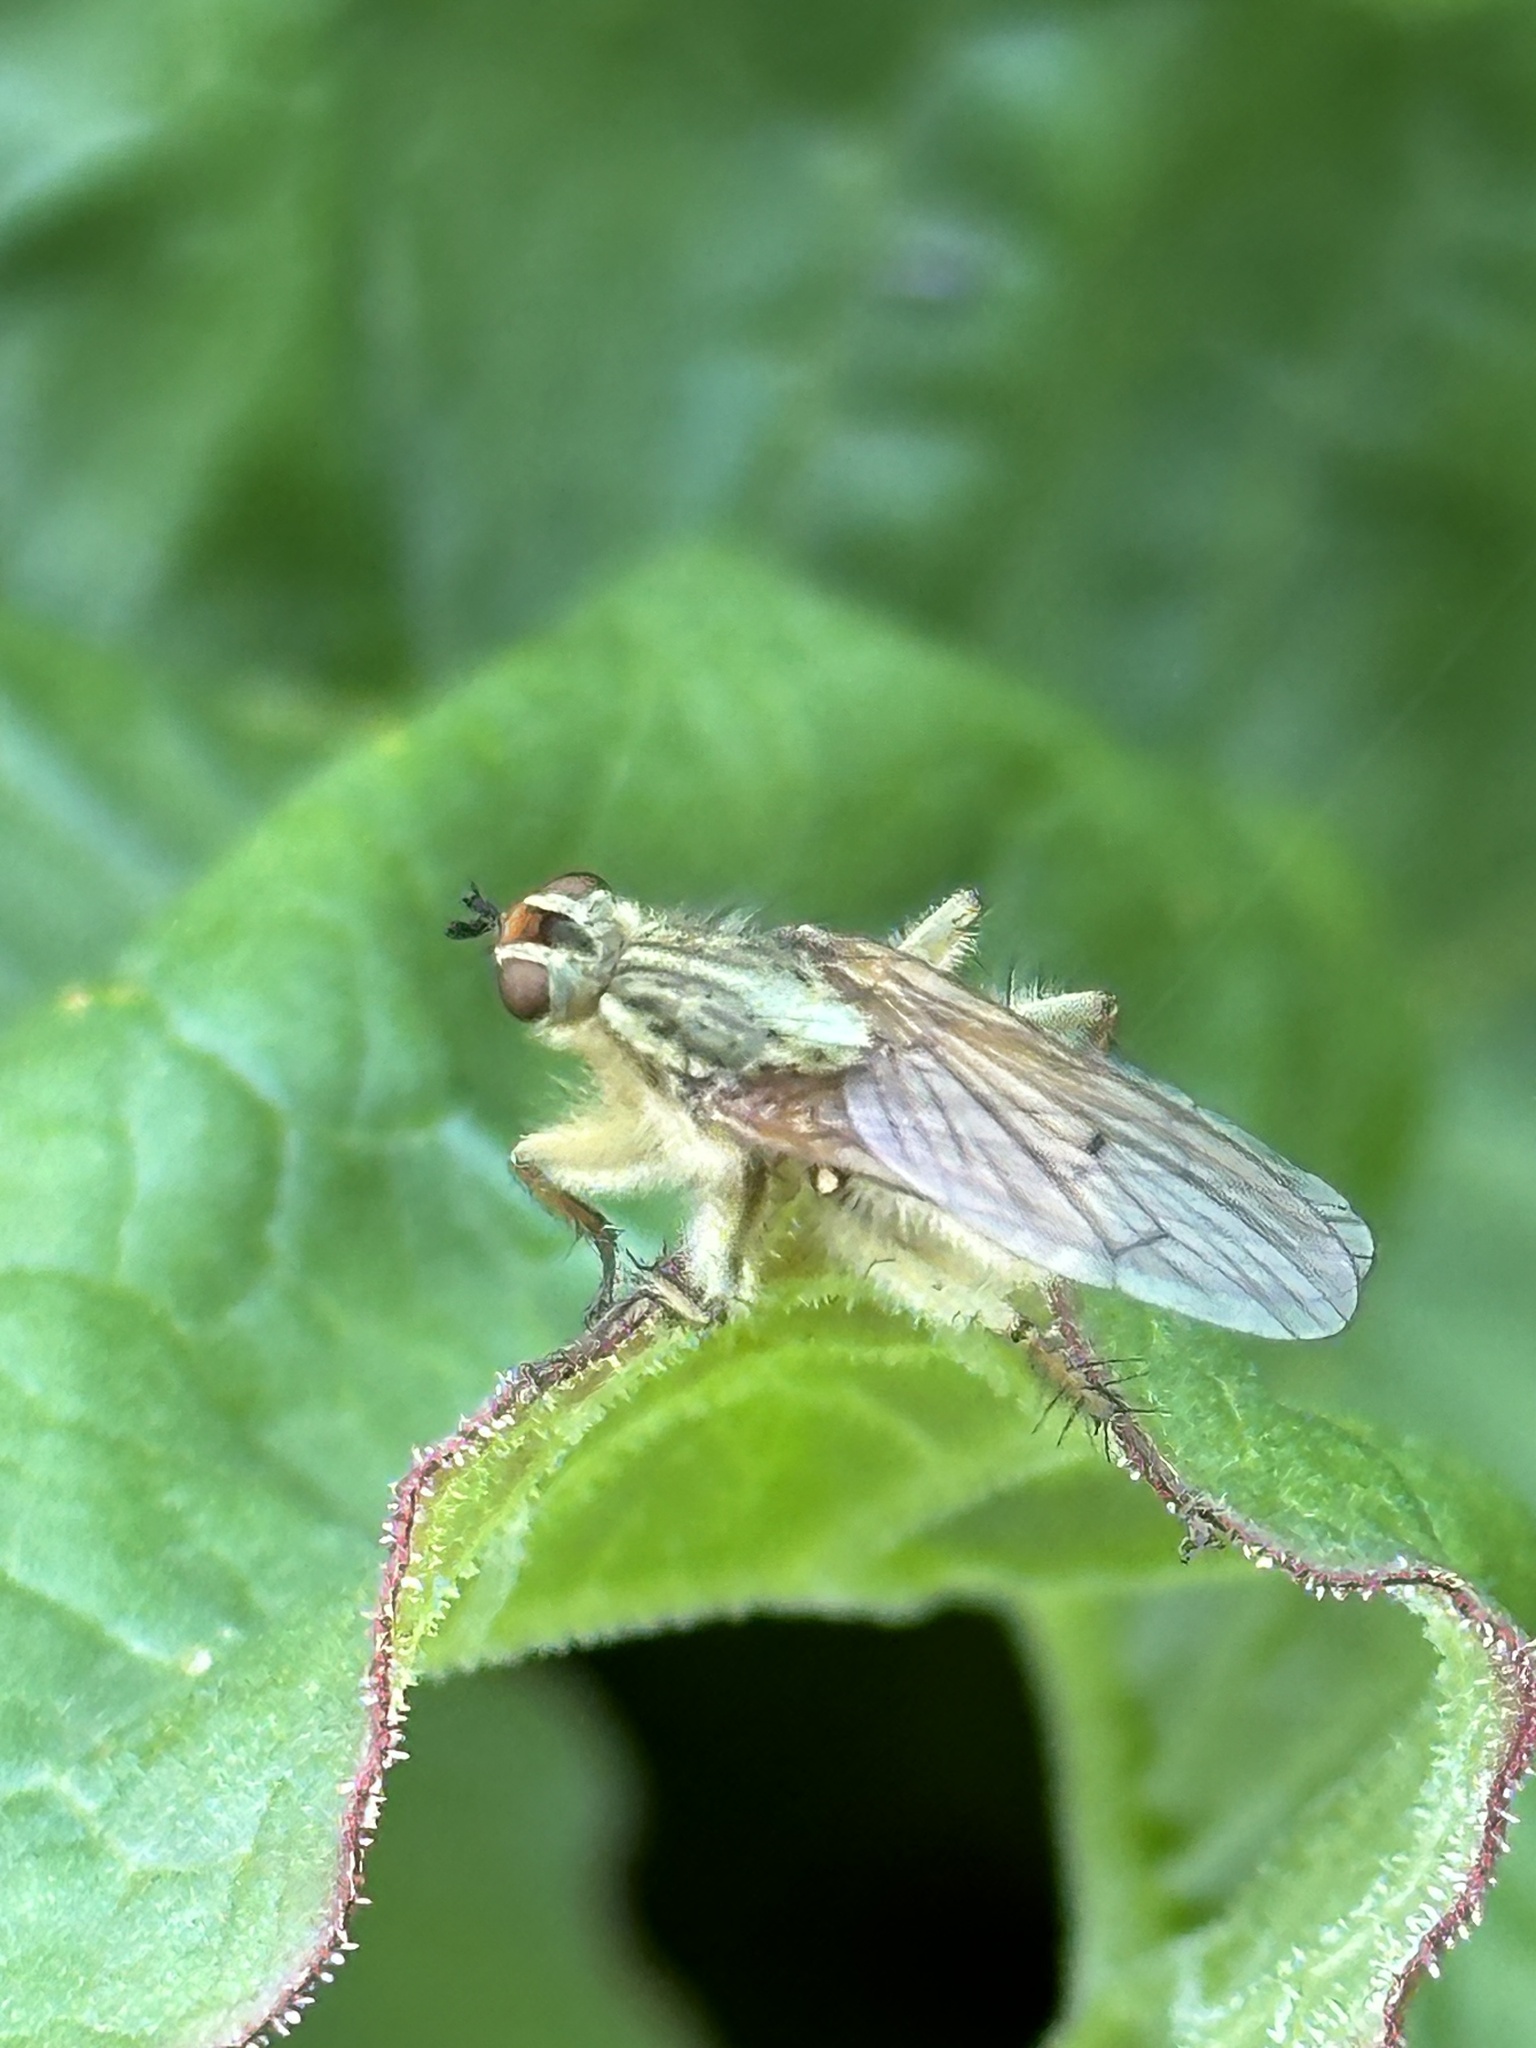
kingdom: Animalia
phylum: Arthropoda
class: Insecta
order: Diptera
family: Scathophagidae
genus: Scathophaga
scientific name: Scathophaga stercoraria
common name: Yellow dung fly
